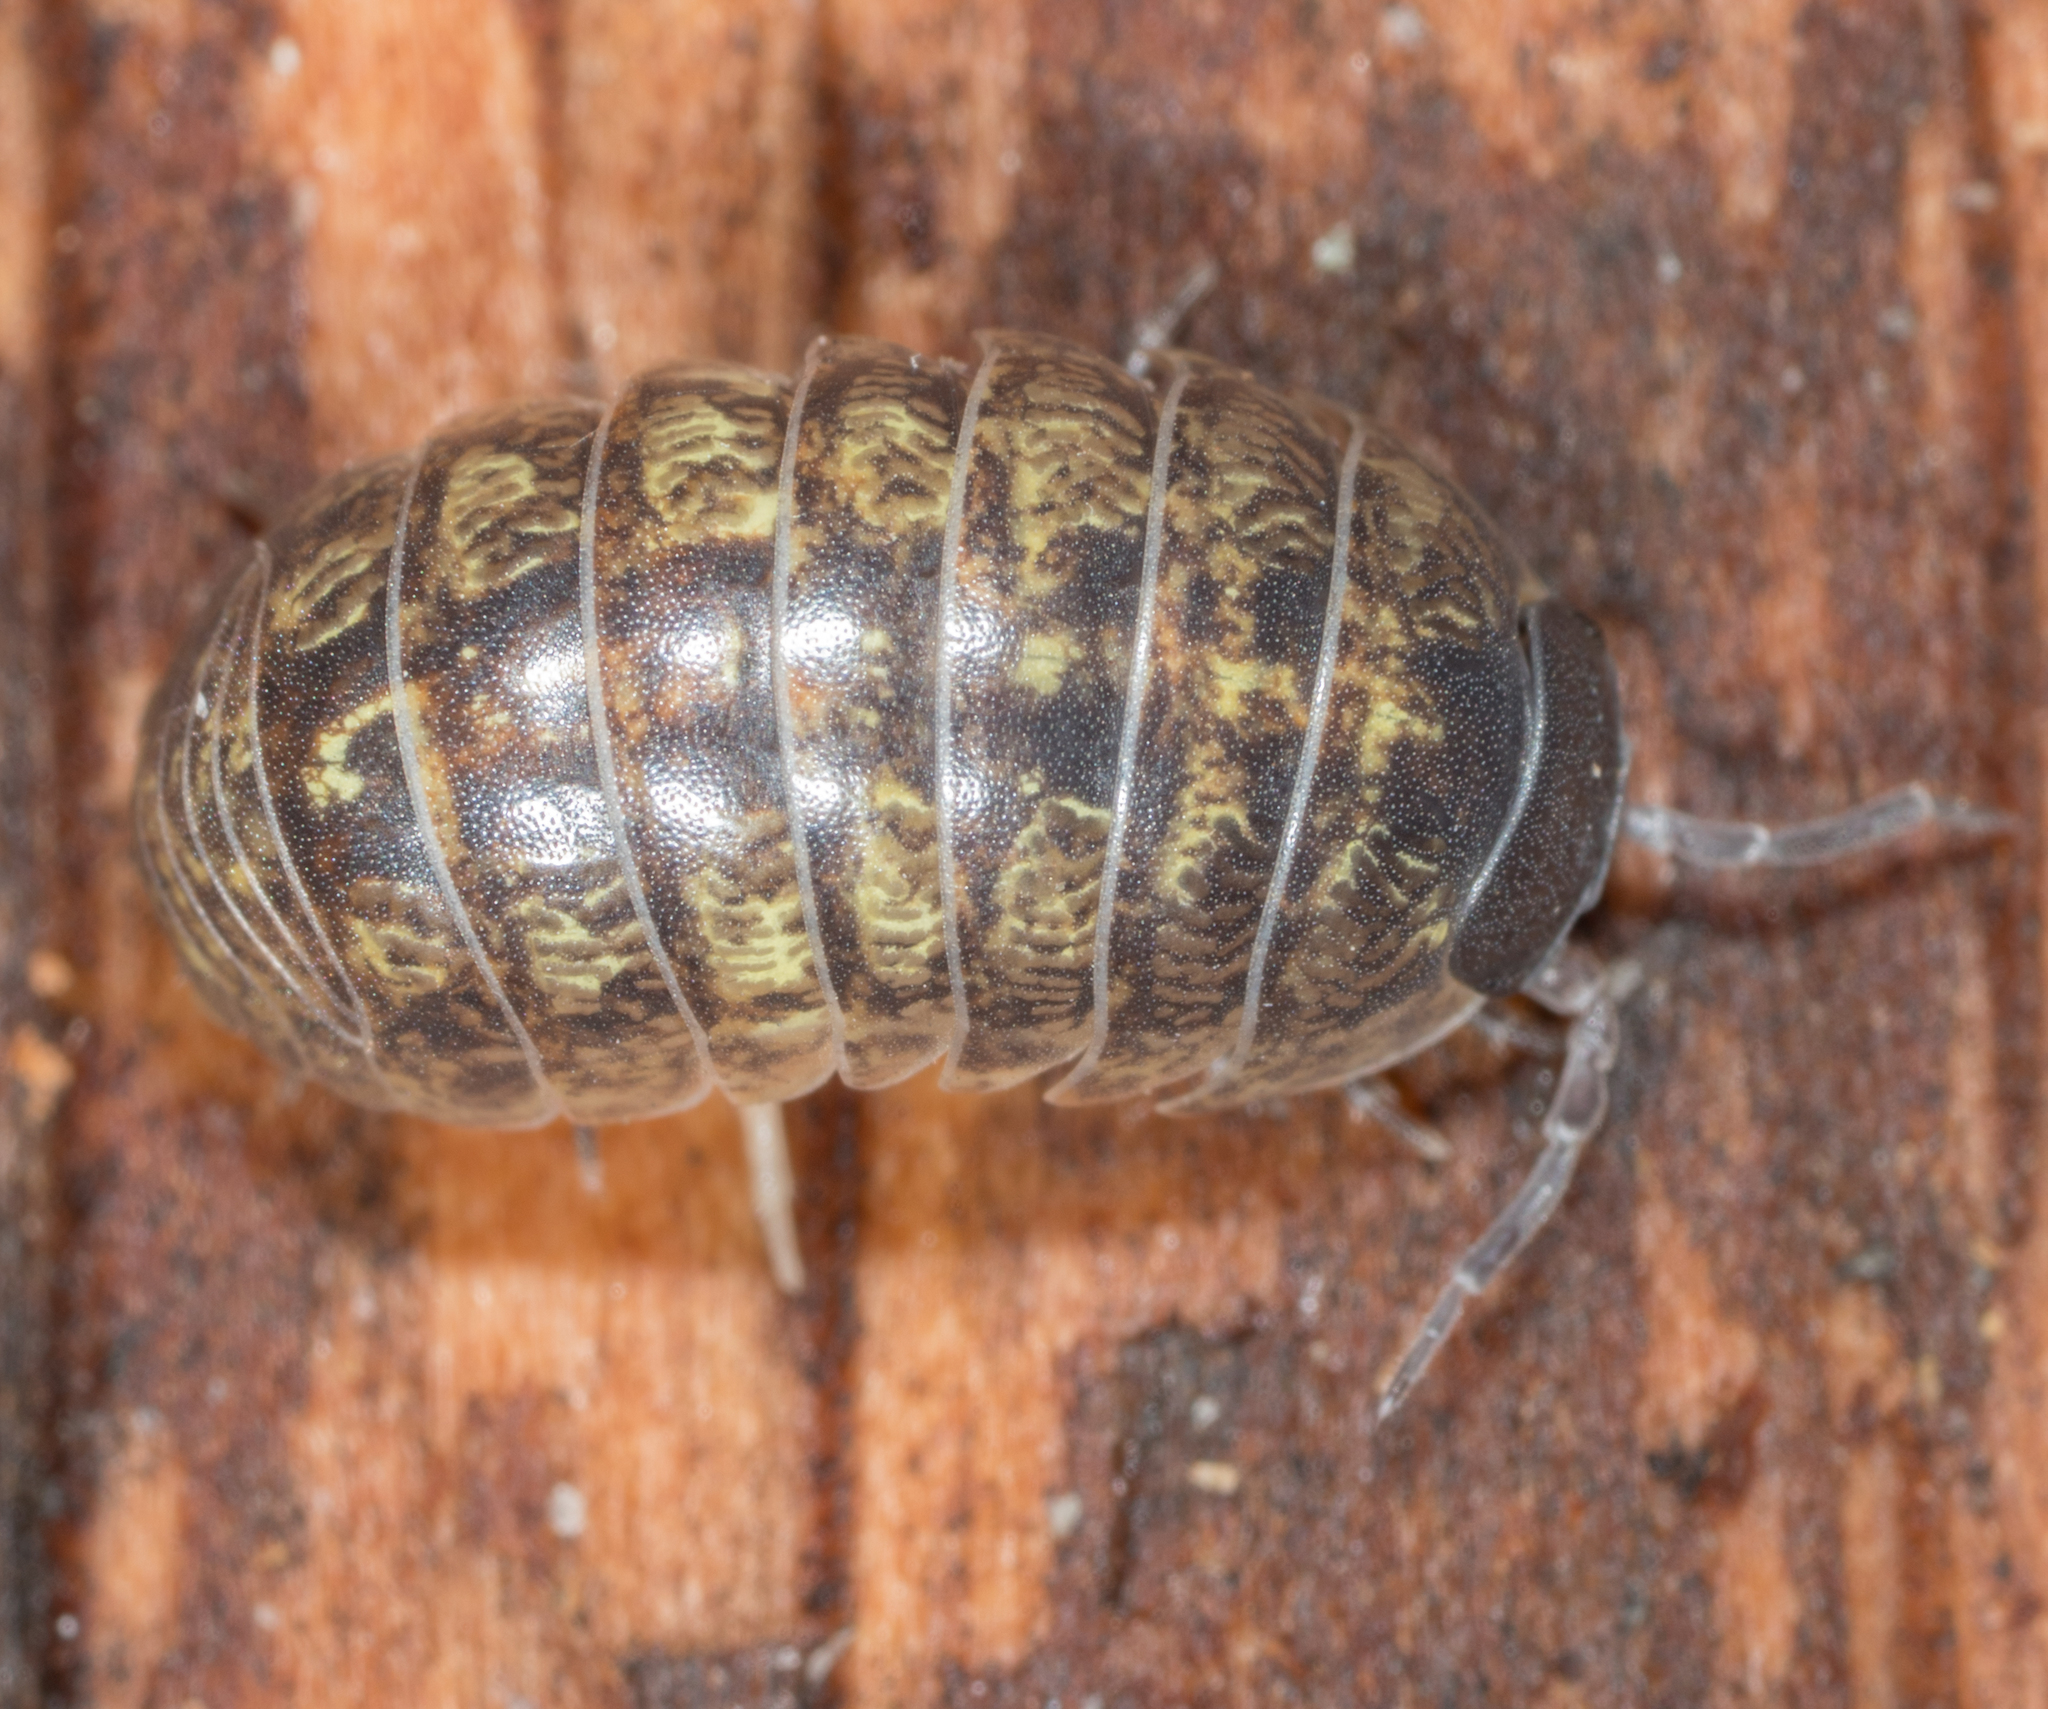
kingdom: Animalia
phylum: Arthropoda
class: Malacostraca
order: Isopoda
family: Armadillidiidae
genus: Armadillidium
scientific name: Armadillidium vulgare
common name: Common pill woodlouse
